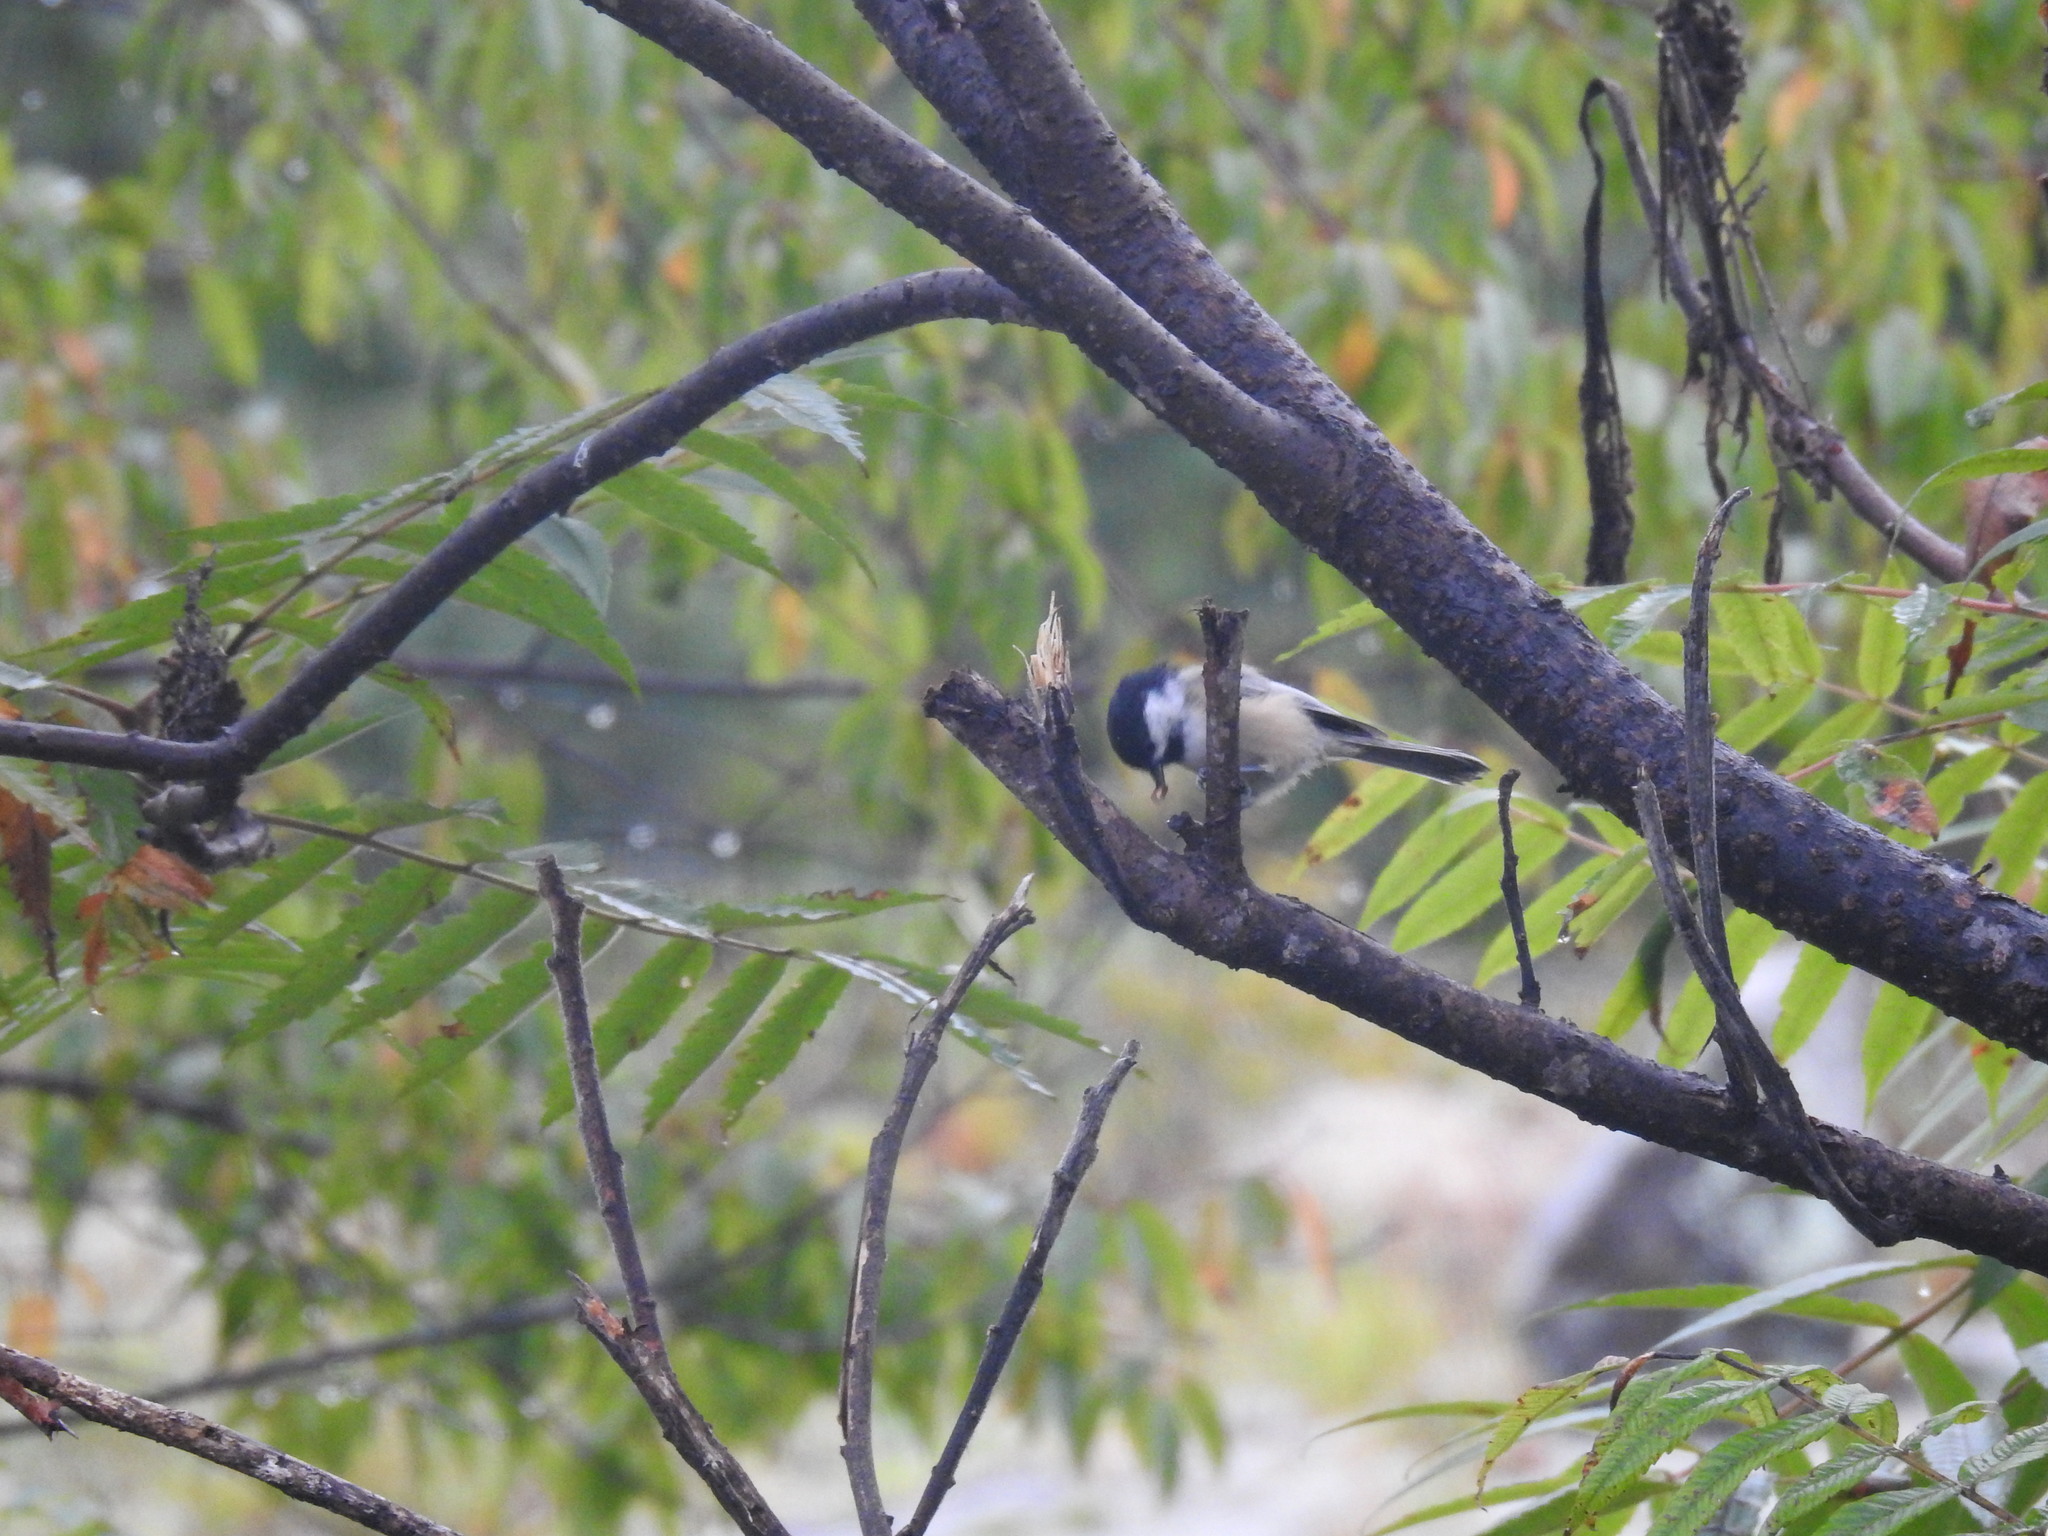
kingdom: Animalia
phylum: Chordata
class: Aves
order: Passeriformes
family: Paridae
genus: Poecile
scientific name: Poecile atricapillus
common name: Black-capped chickadee
